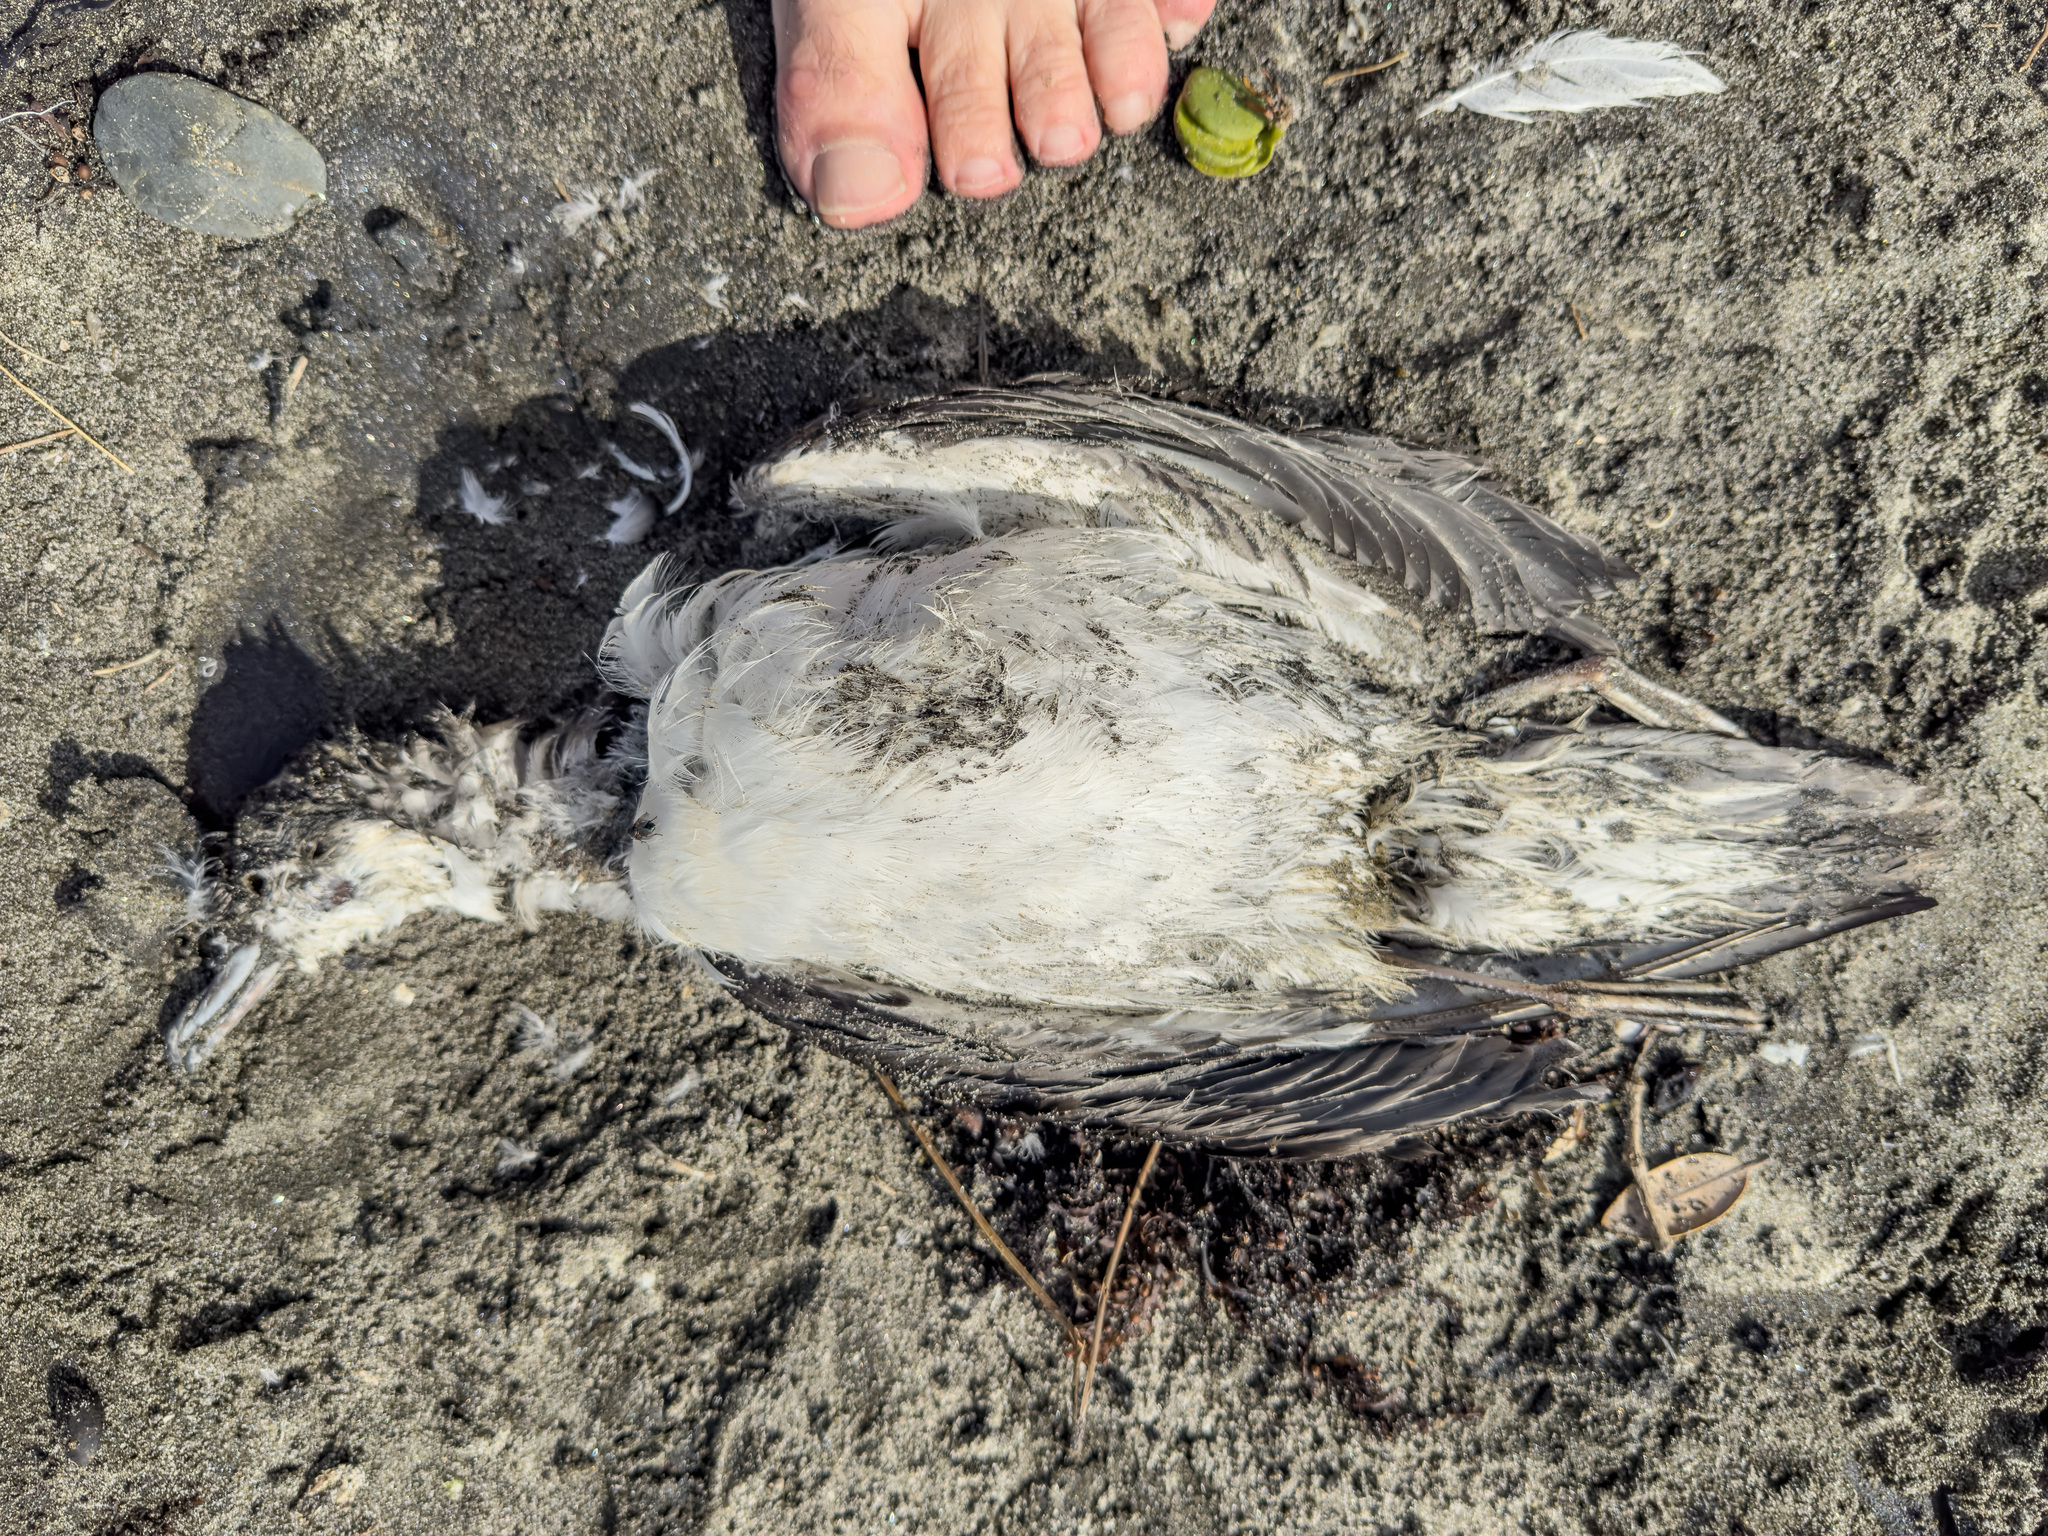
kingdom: Animalia
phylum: Chordata
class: Aves
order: Procellariiformes
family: Procellariidae
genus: Puffinus
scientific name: Puffinus bulleri
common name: Buller's shearwater
